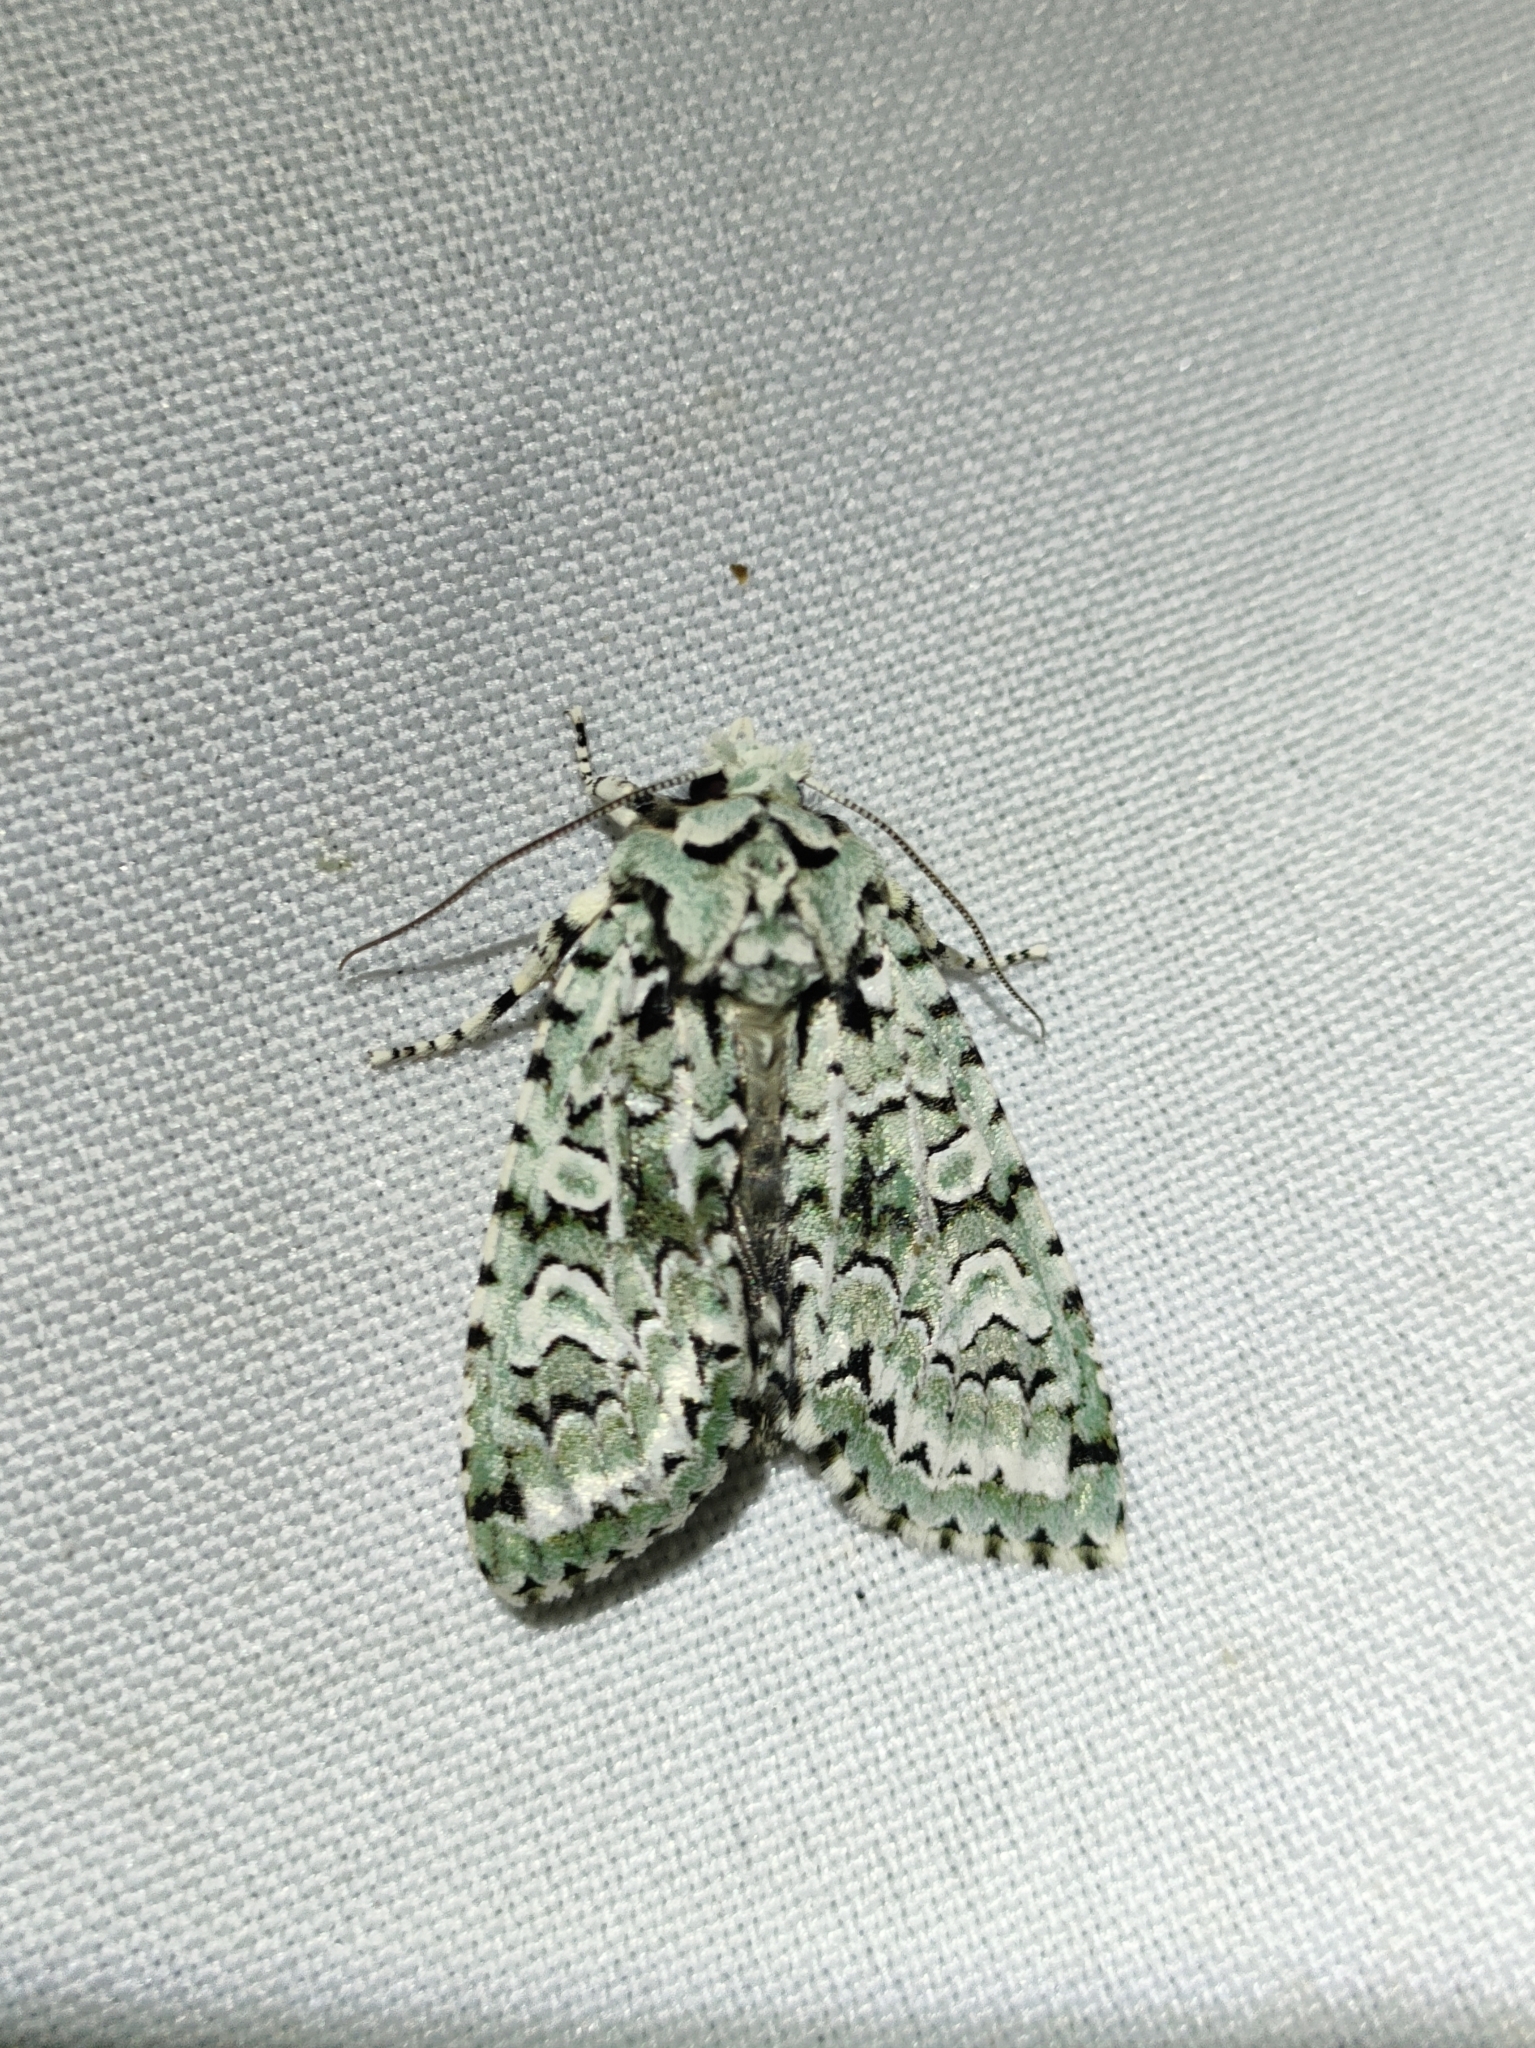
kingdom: Animalia
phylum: Arthropoda
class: Insecta
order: Lepidoptera
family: Noctuidae
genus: Griposia
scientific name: Griposia aprilina
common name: Merveille du jour
